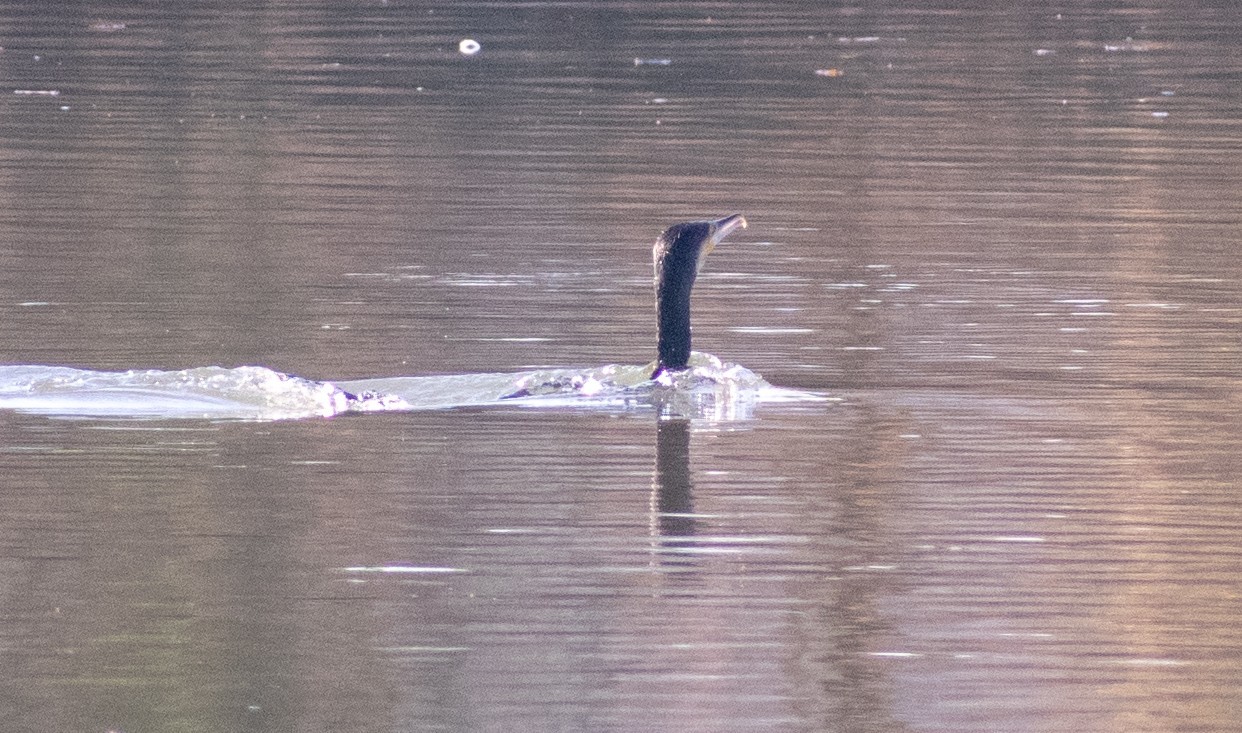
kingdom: Animalia
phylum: Chordata
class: Aves
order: Suliformes
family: Phalacrocoracidae
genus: Phalacrocorax
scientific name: Phalacrocorax carbo
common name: Great cormorant
